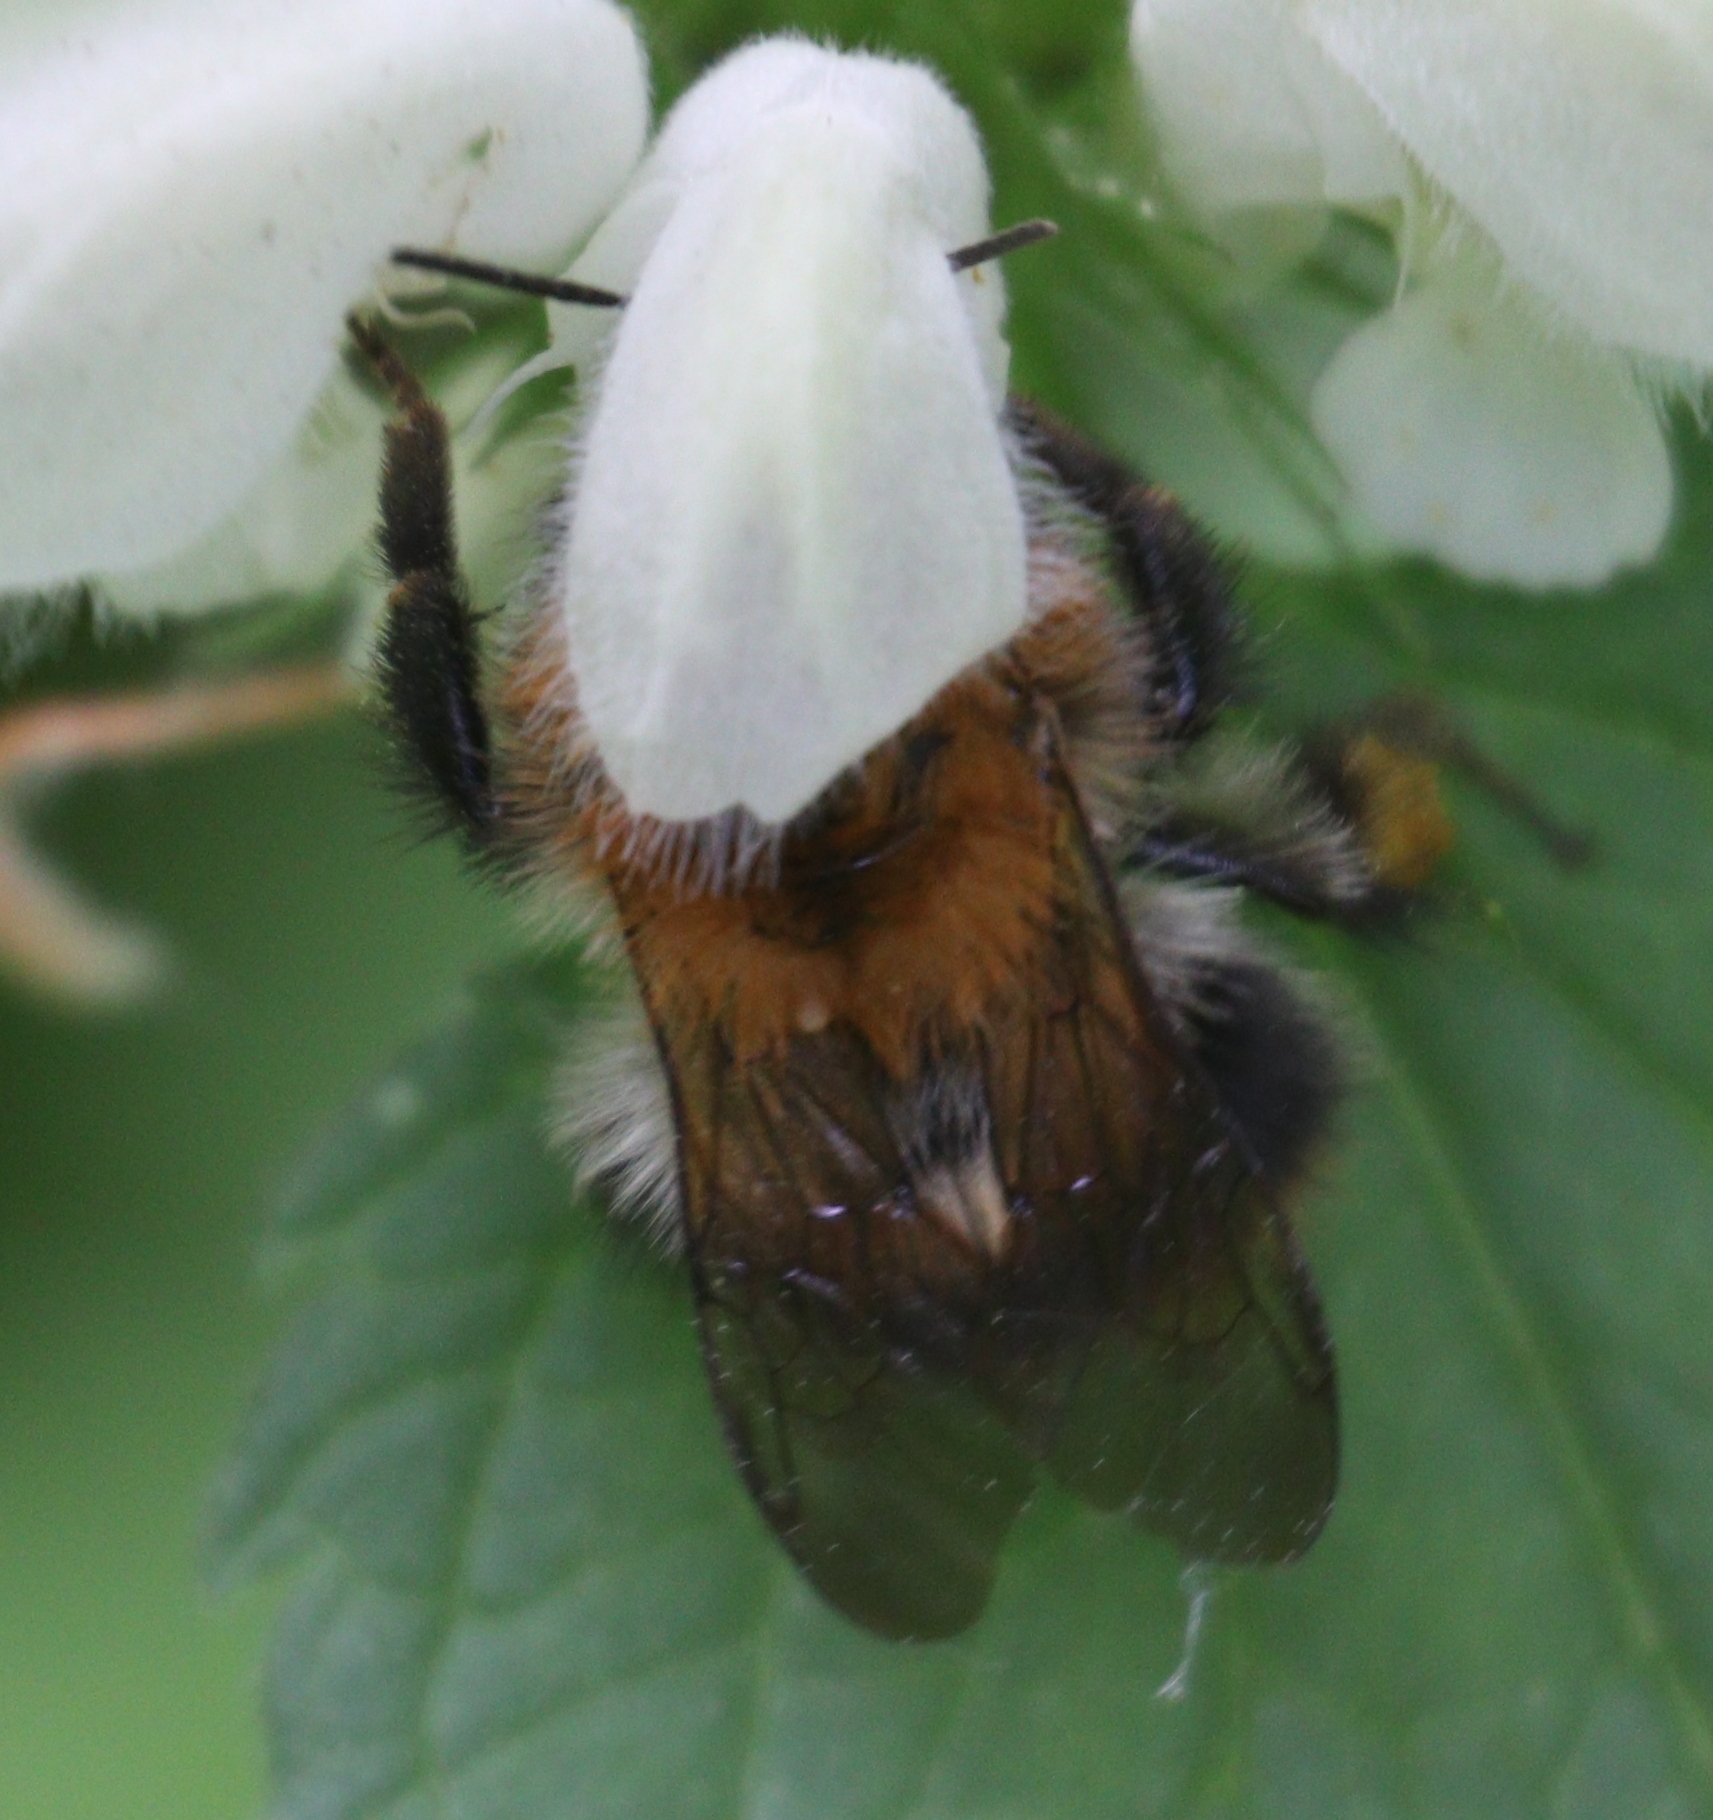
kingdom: Animalia
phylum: Arthropoda
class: Insecta
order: Hymenoptera
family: Apidae
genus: Bombus
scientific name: Bombus pascuorum
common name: Common carder bee
